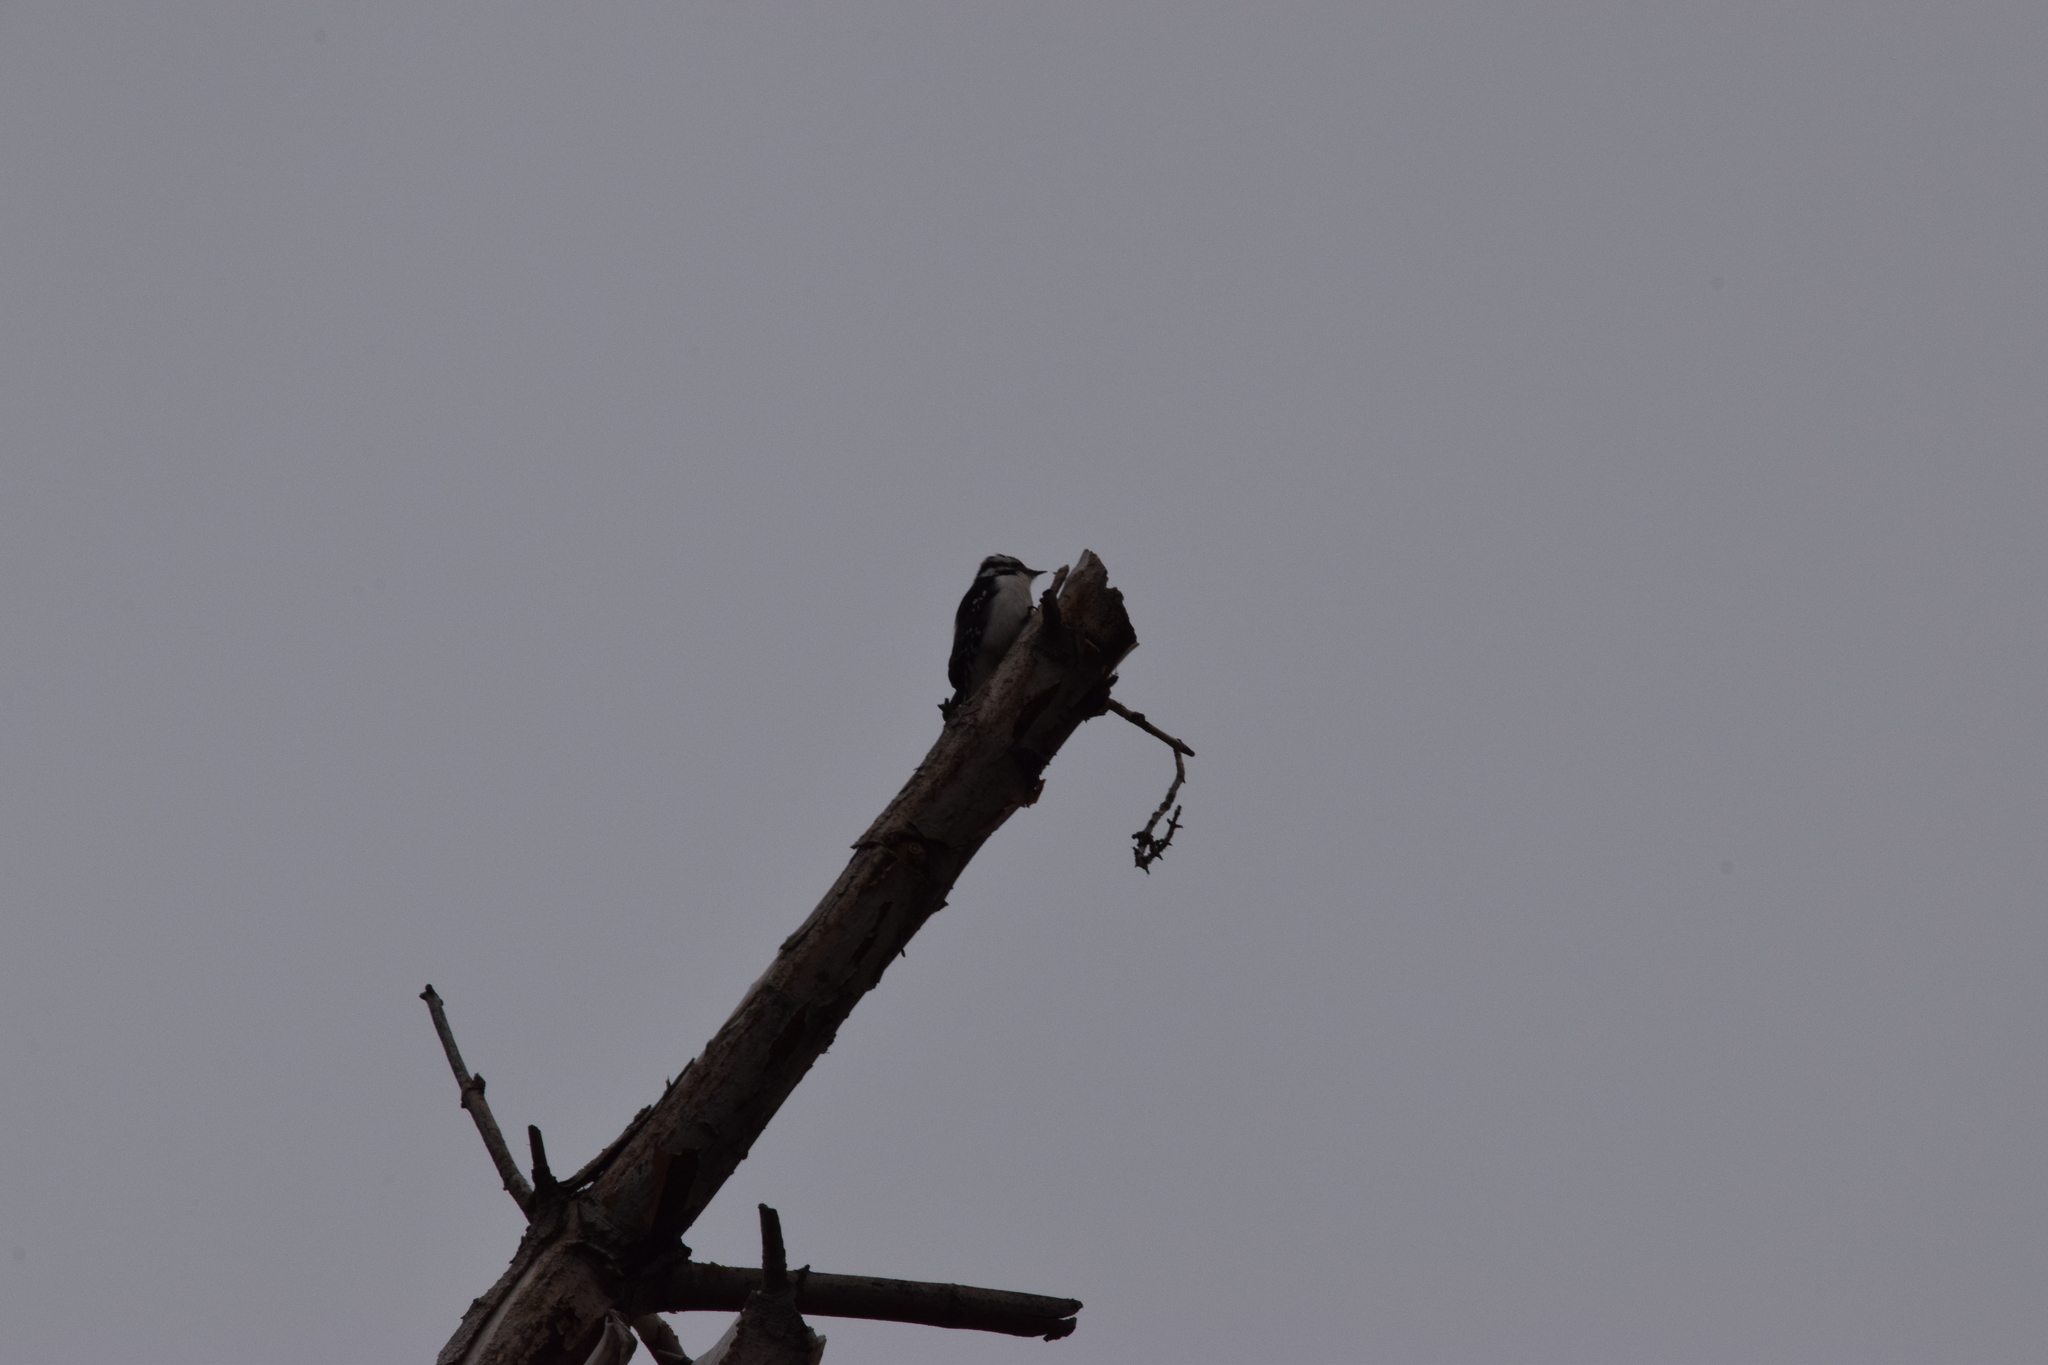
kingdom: Animalia
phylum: Chordata
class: Aves
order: Piciformes
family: Picidae
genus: Dryobates
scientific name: Dryobates pubescens
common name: Downy woodpecker
